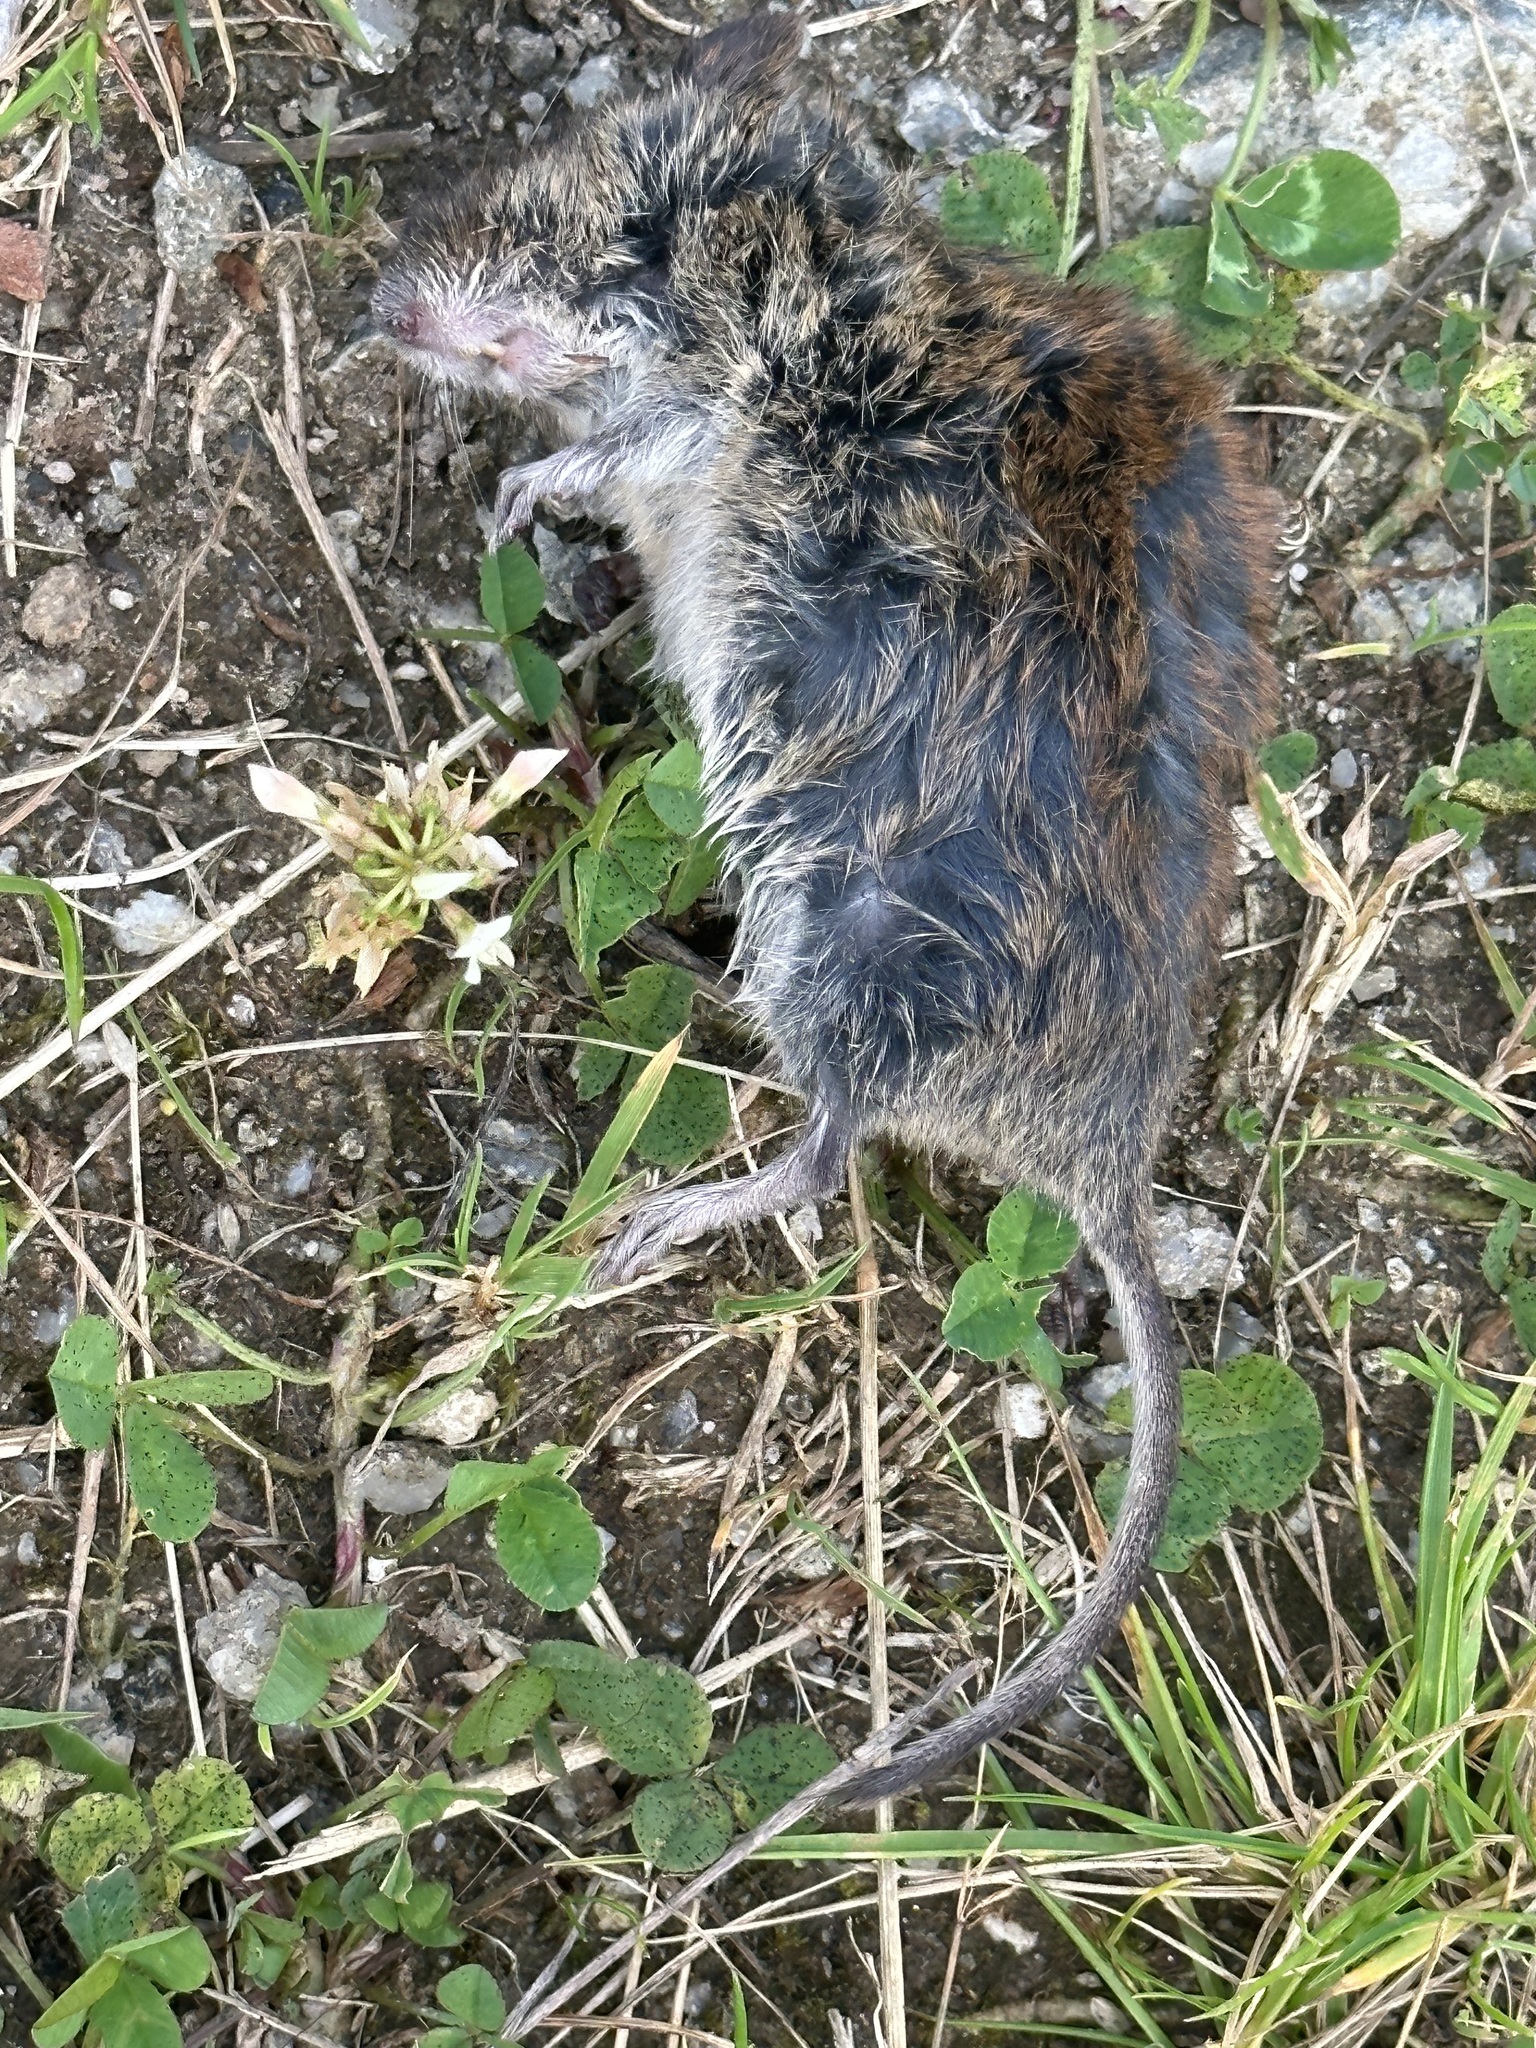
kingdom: Animalia
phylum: Chordata
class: Mammalia
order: Rodentia
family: Cricetidae
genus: Myodes
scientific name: Myodes glareolus
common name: Bank vole
